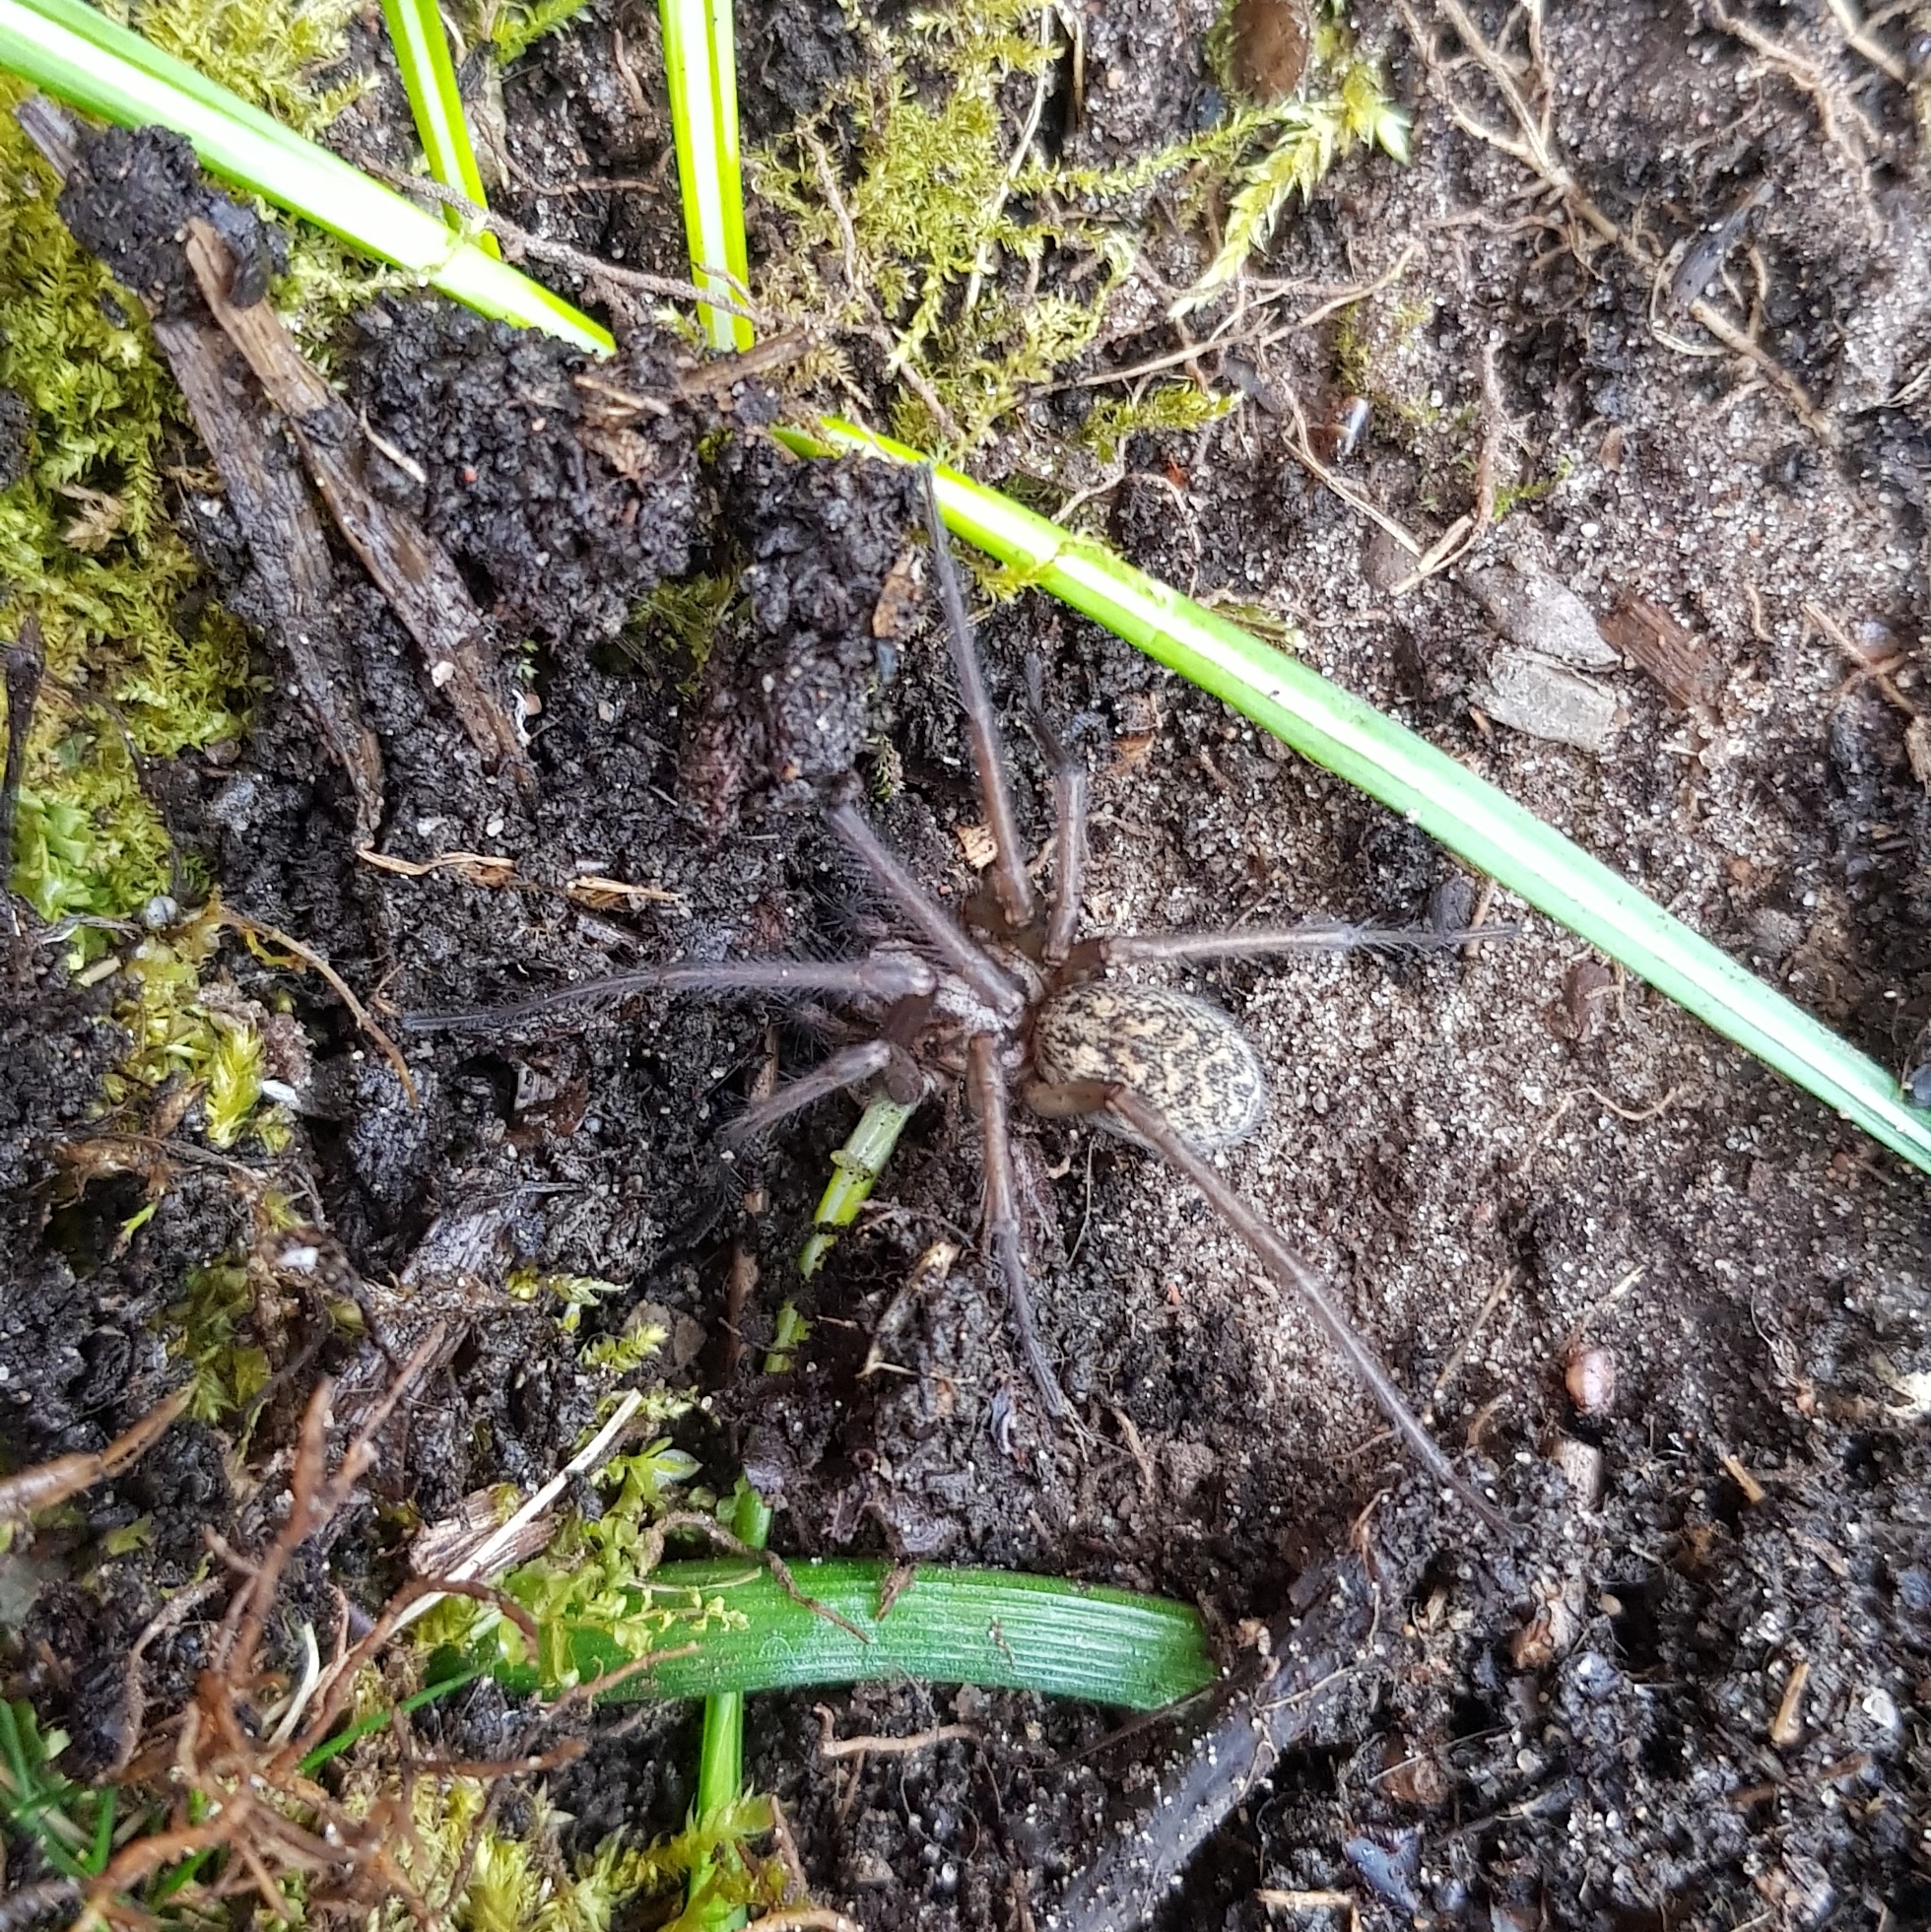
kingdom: Animalia
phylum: Arthropoda
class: Arachnida
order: Araneae
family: Agelenidae
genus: Eratigena
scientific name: Eratigena atrica
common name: Giant house spider
